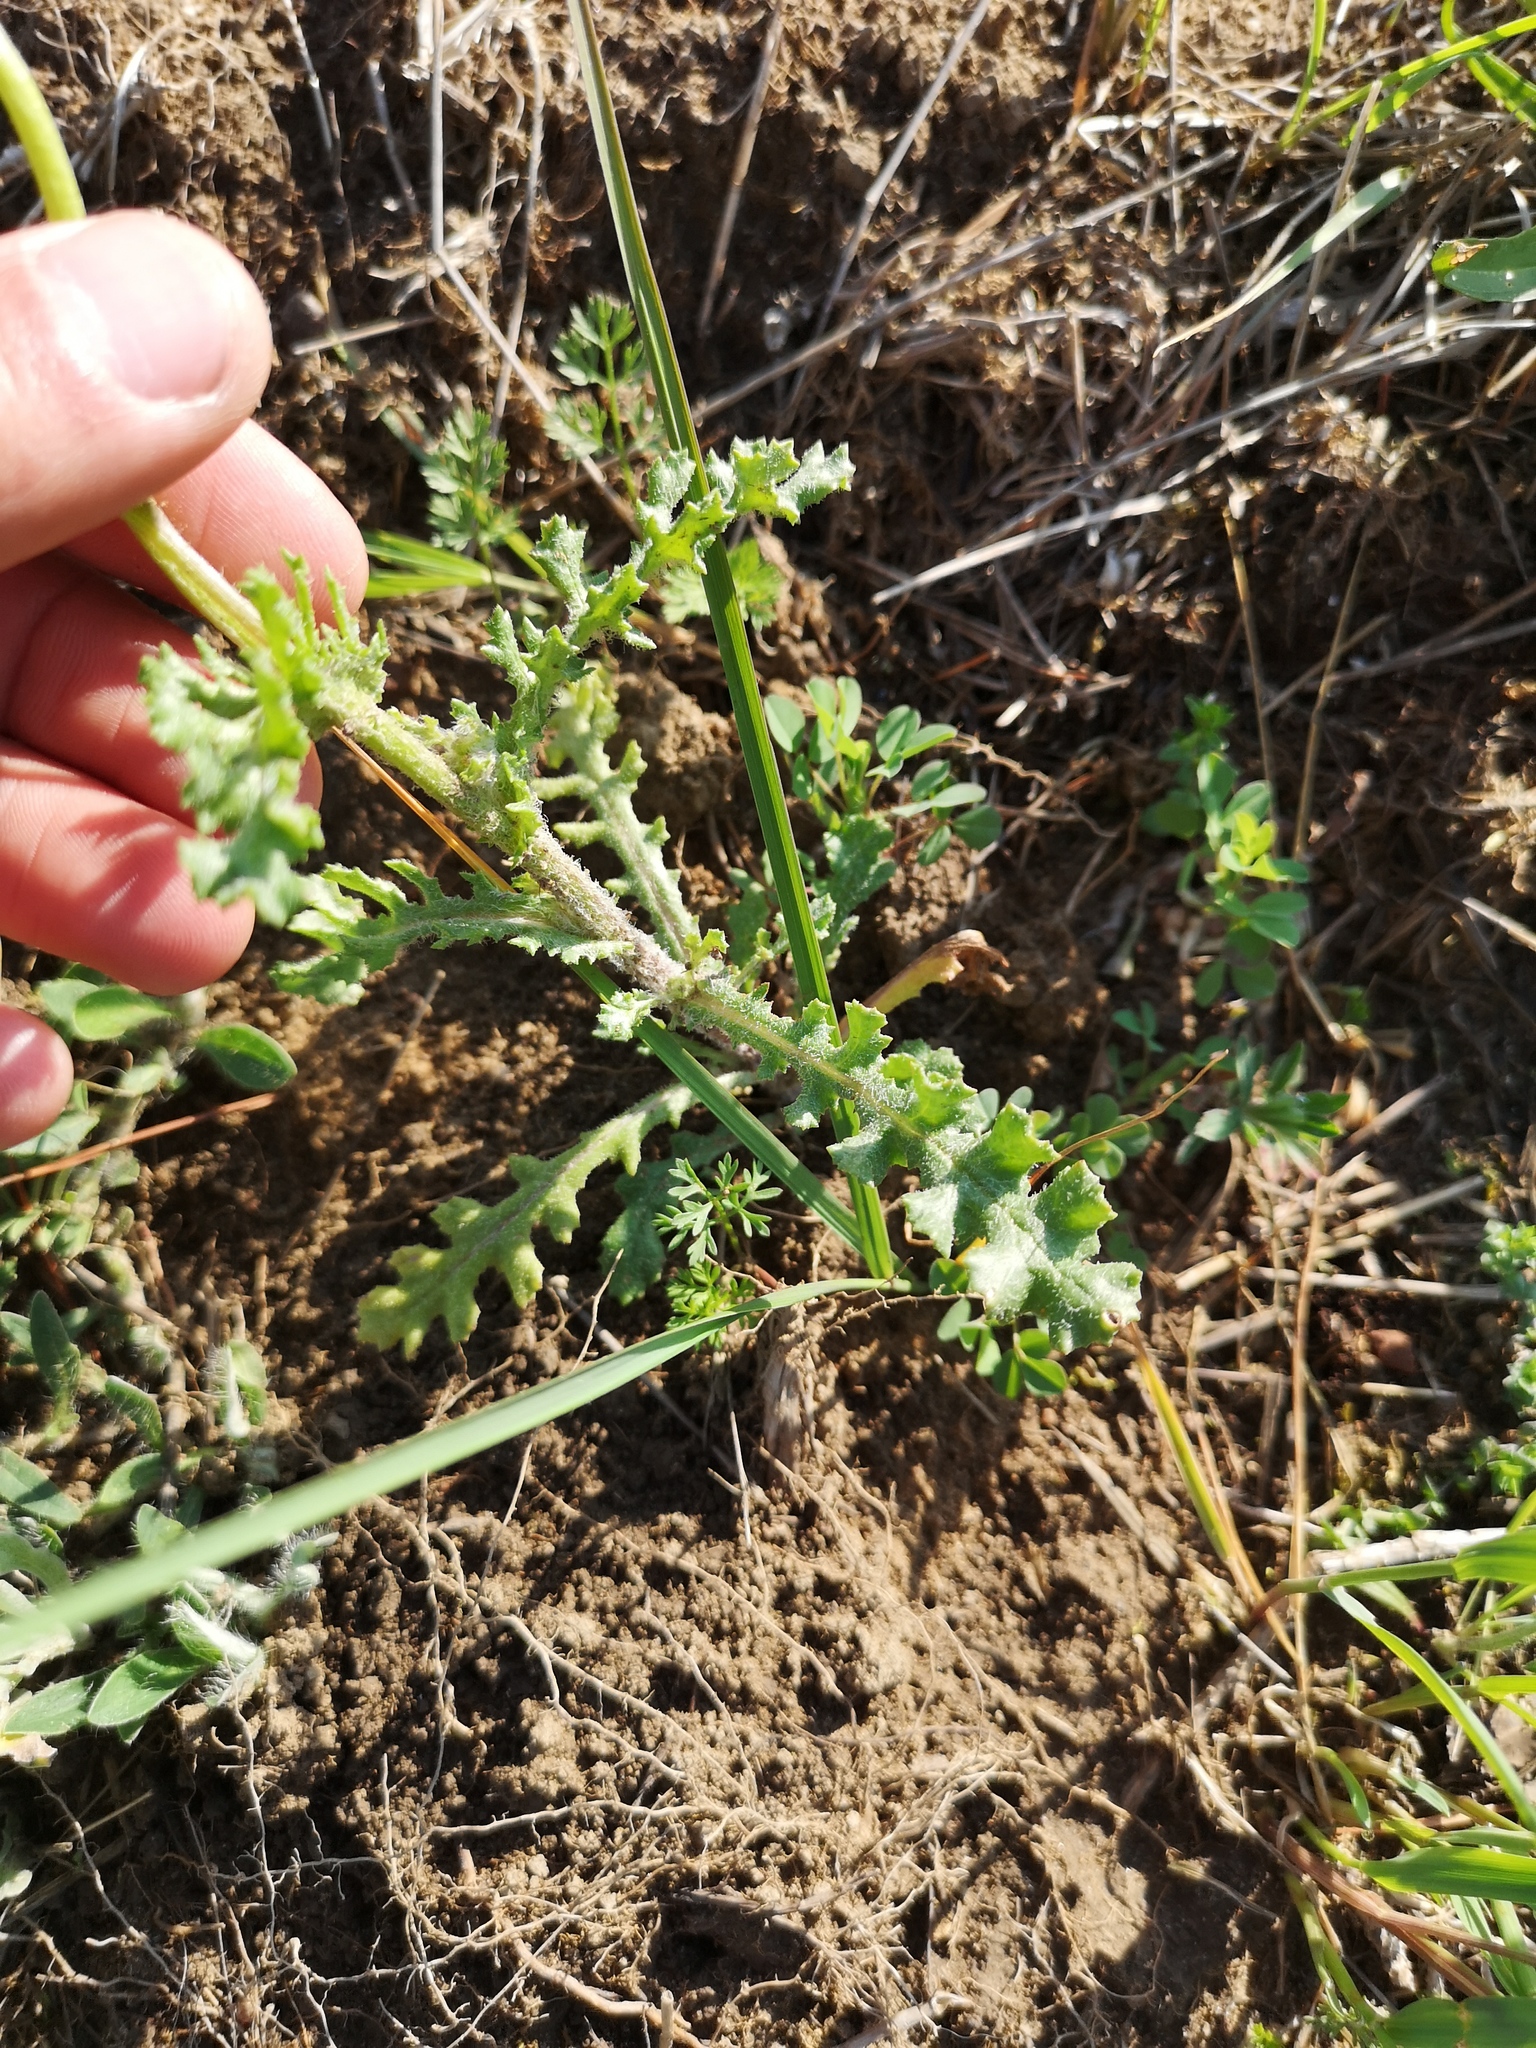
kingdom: Plantae
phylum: Tracheophyta
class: Magnoliopsida
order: Asterales
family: Asteraceae
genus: Senecio
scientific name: Senecio vernalis
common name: Eastern groundsel
